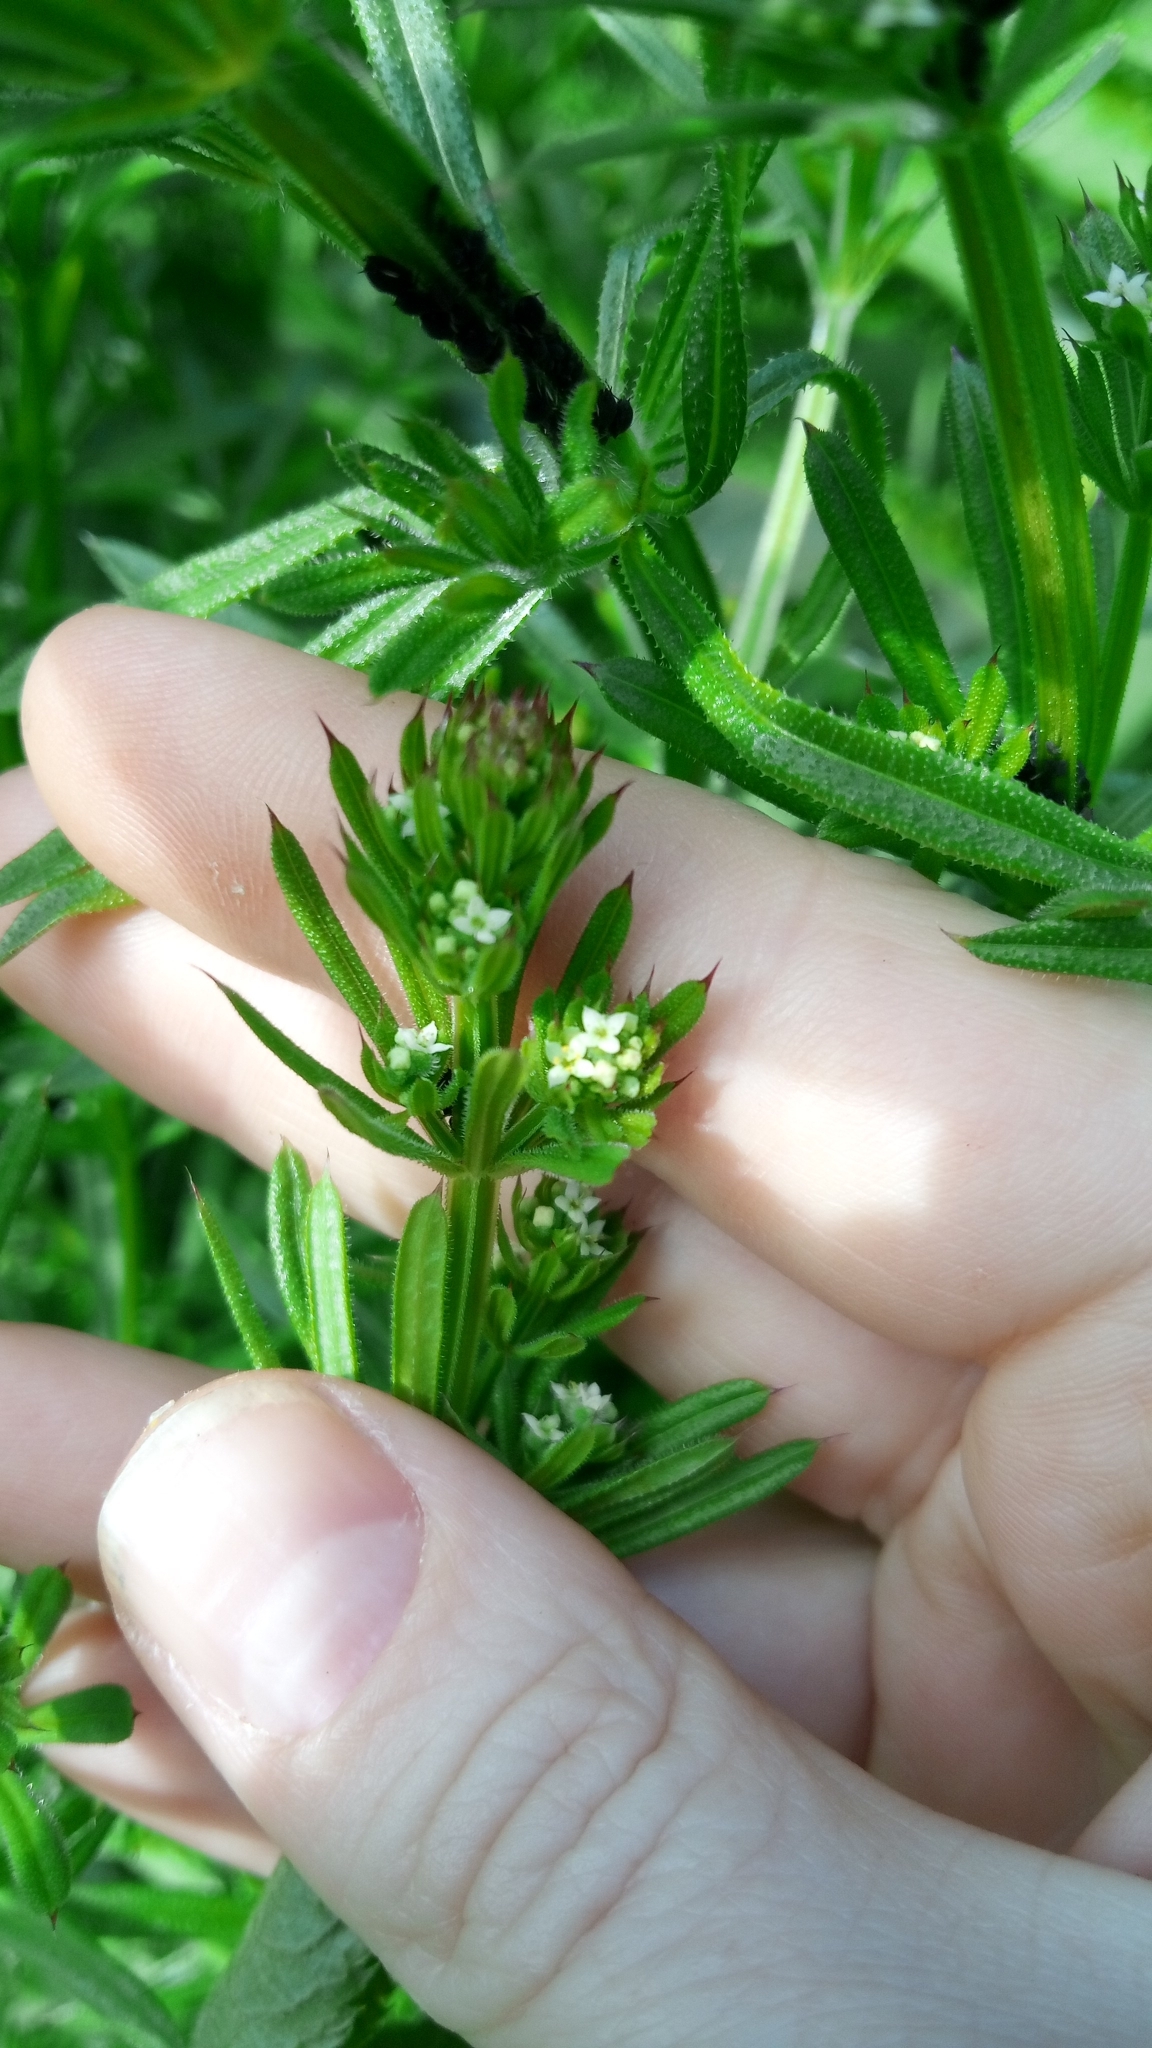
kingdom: Plantae
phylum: Tracheophyta
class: Magnoliopsida
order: Gentianales
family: Rubiaceae
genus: Galium
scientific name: Galium aparine
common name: Cleavers
